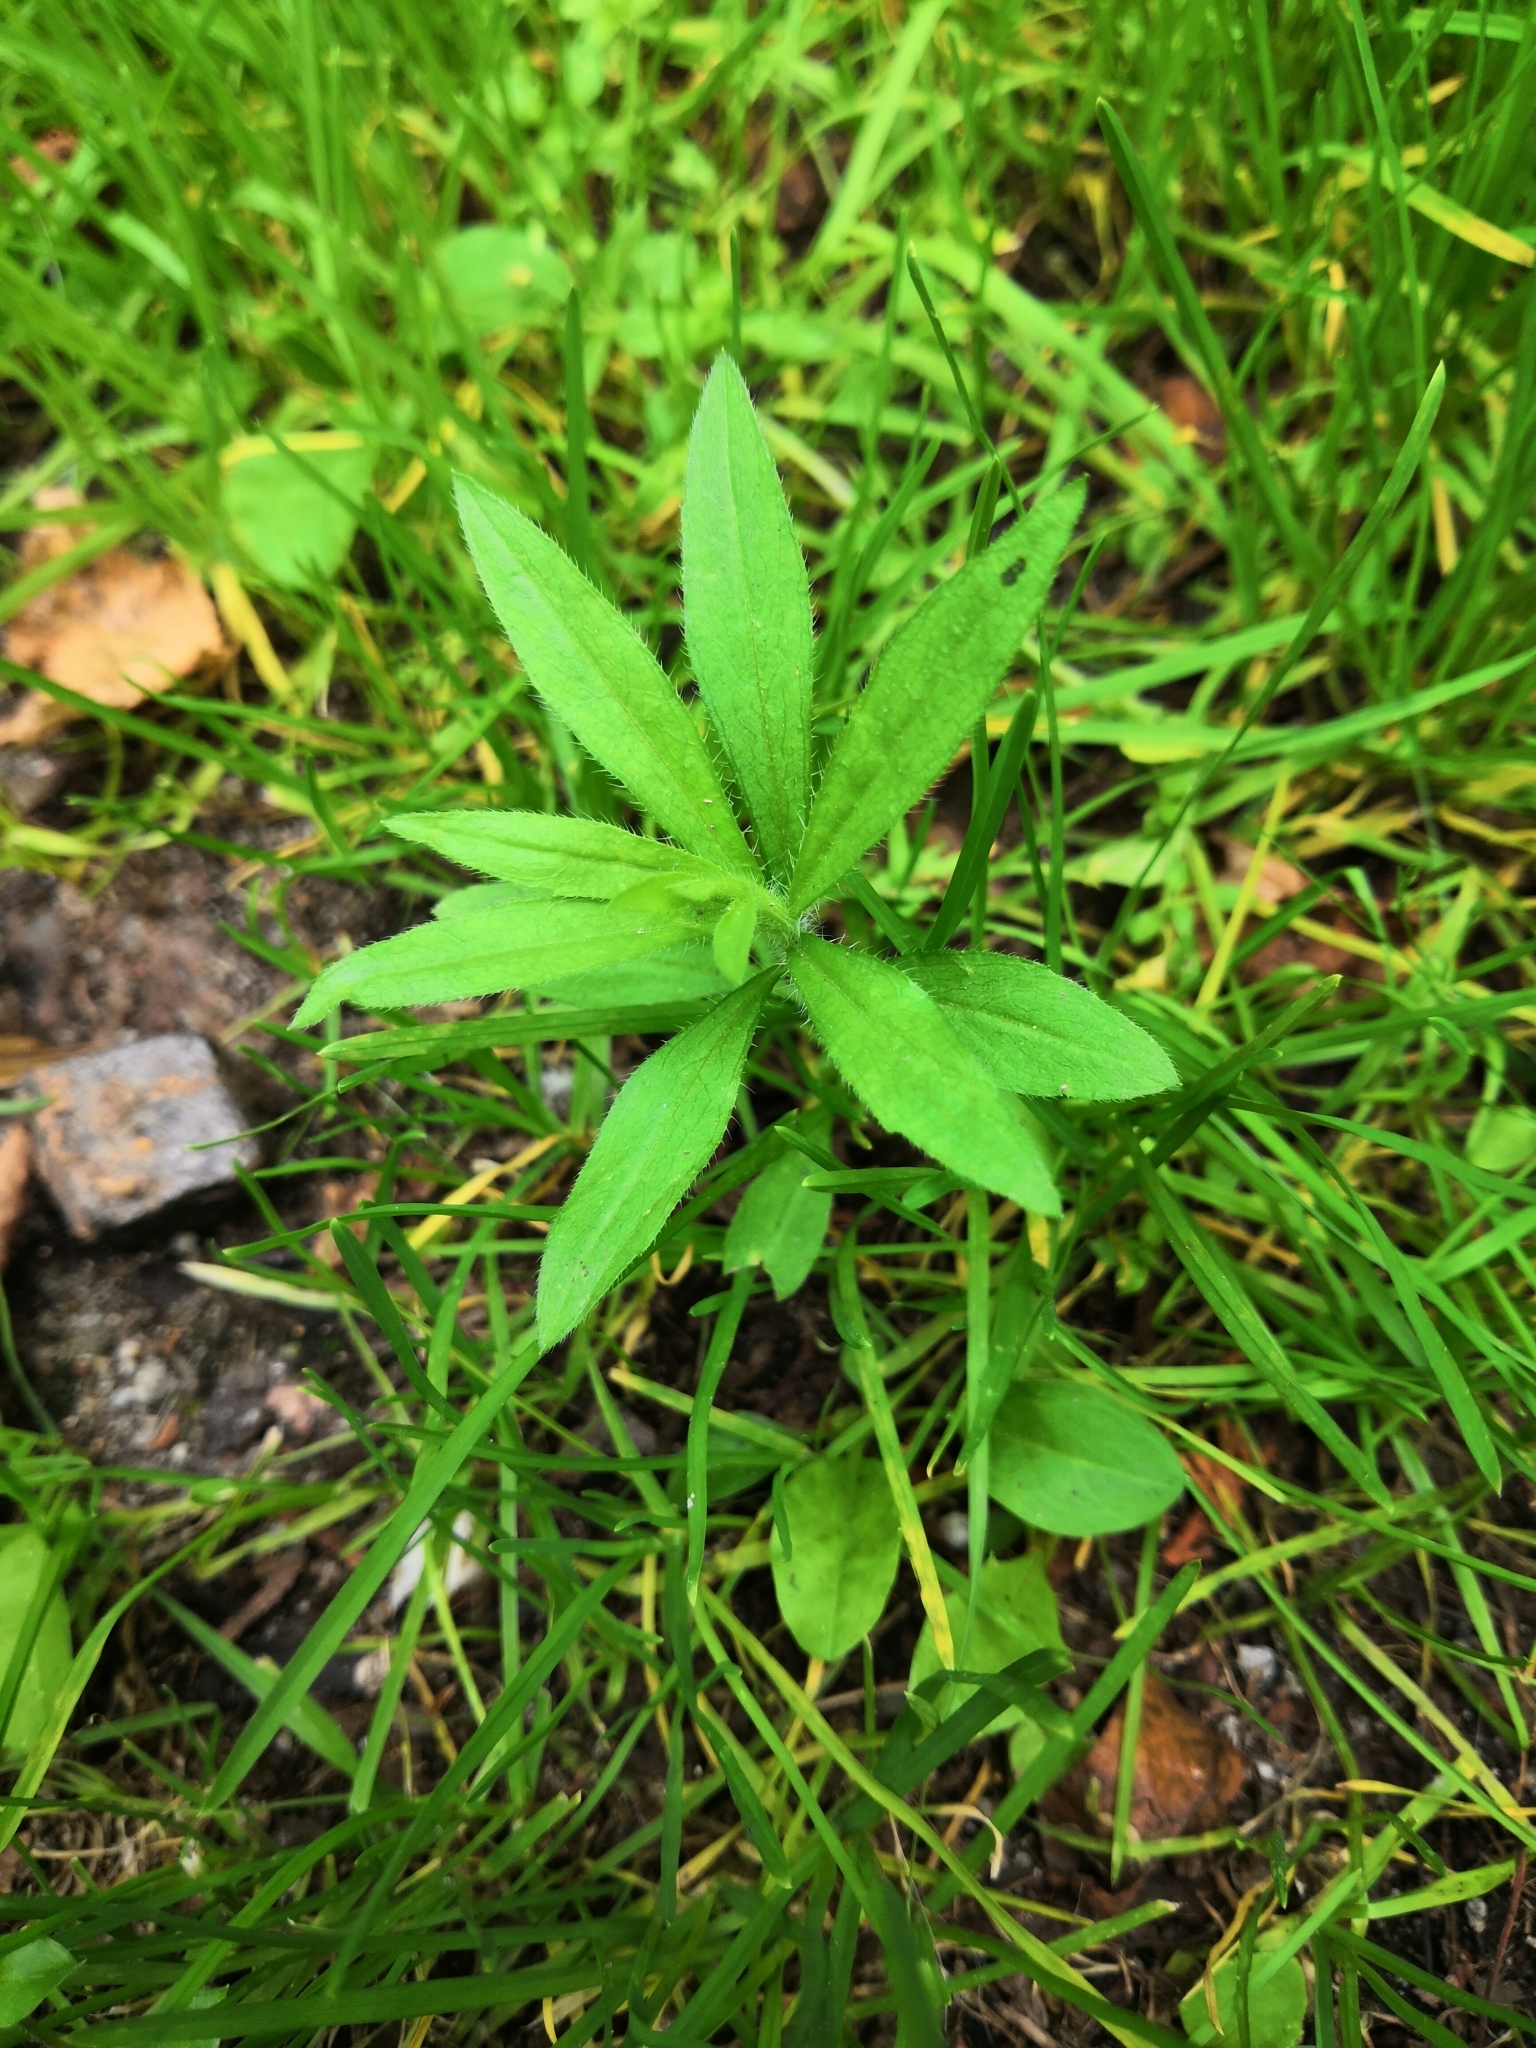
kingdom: Plantae
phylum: Tracheophyta
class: Magnoliopsida
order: Asterales
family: Asteraceae
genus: Erigeron
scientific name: Erigeron canadensis
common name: Canadian fleabane
